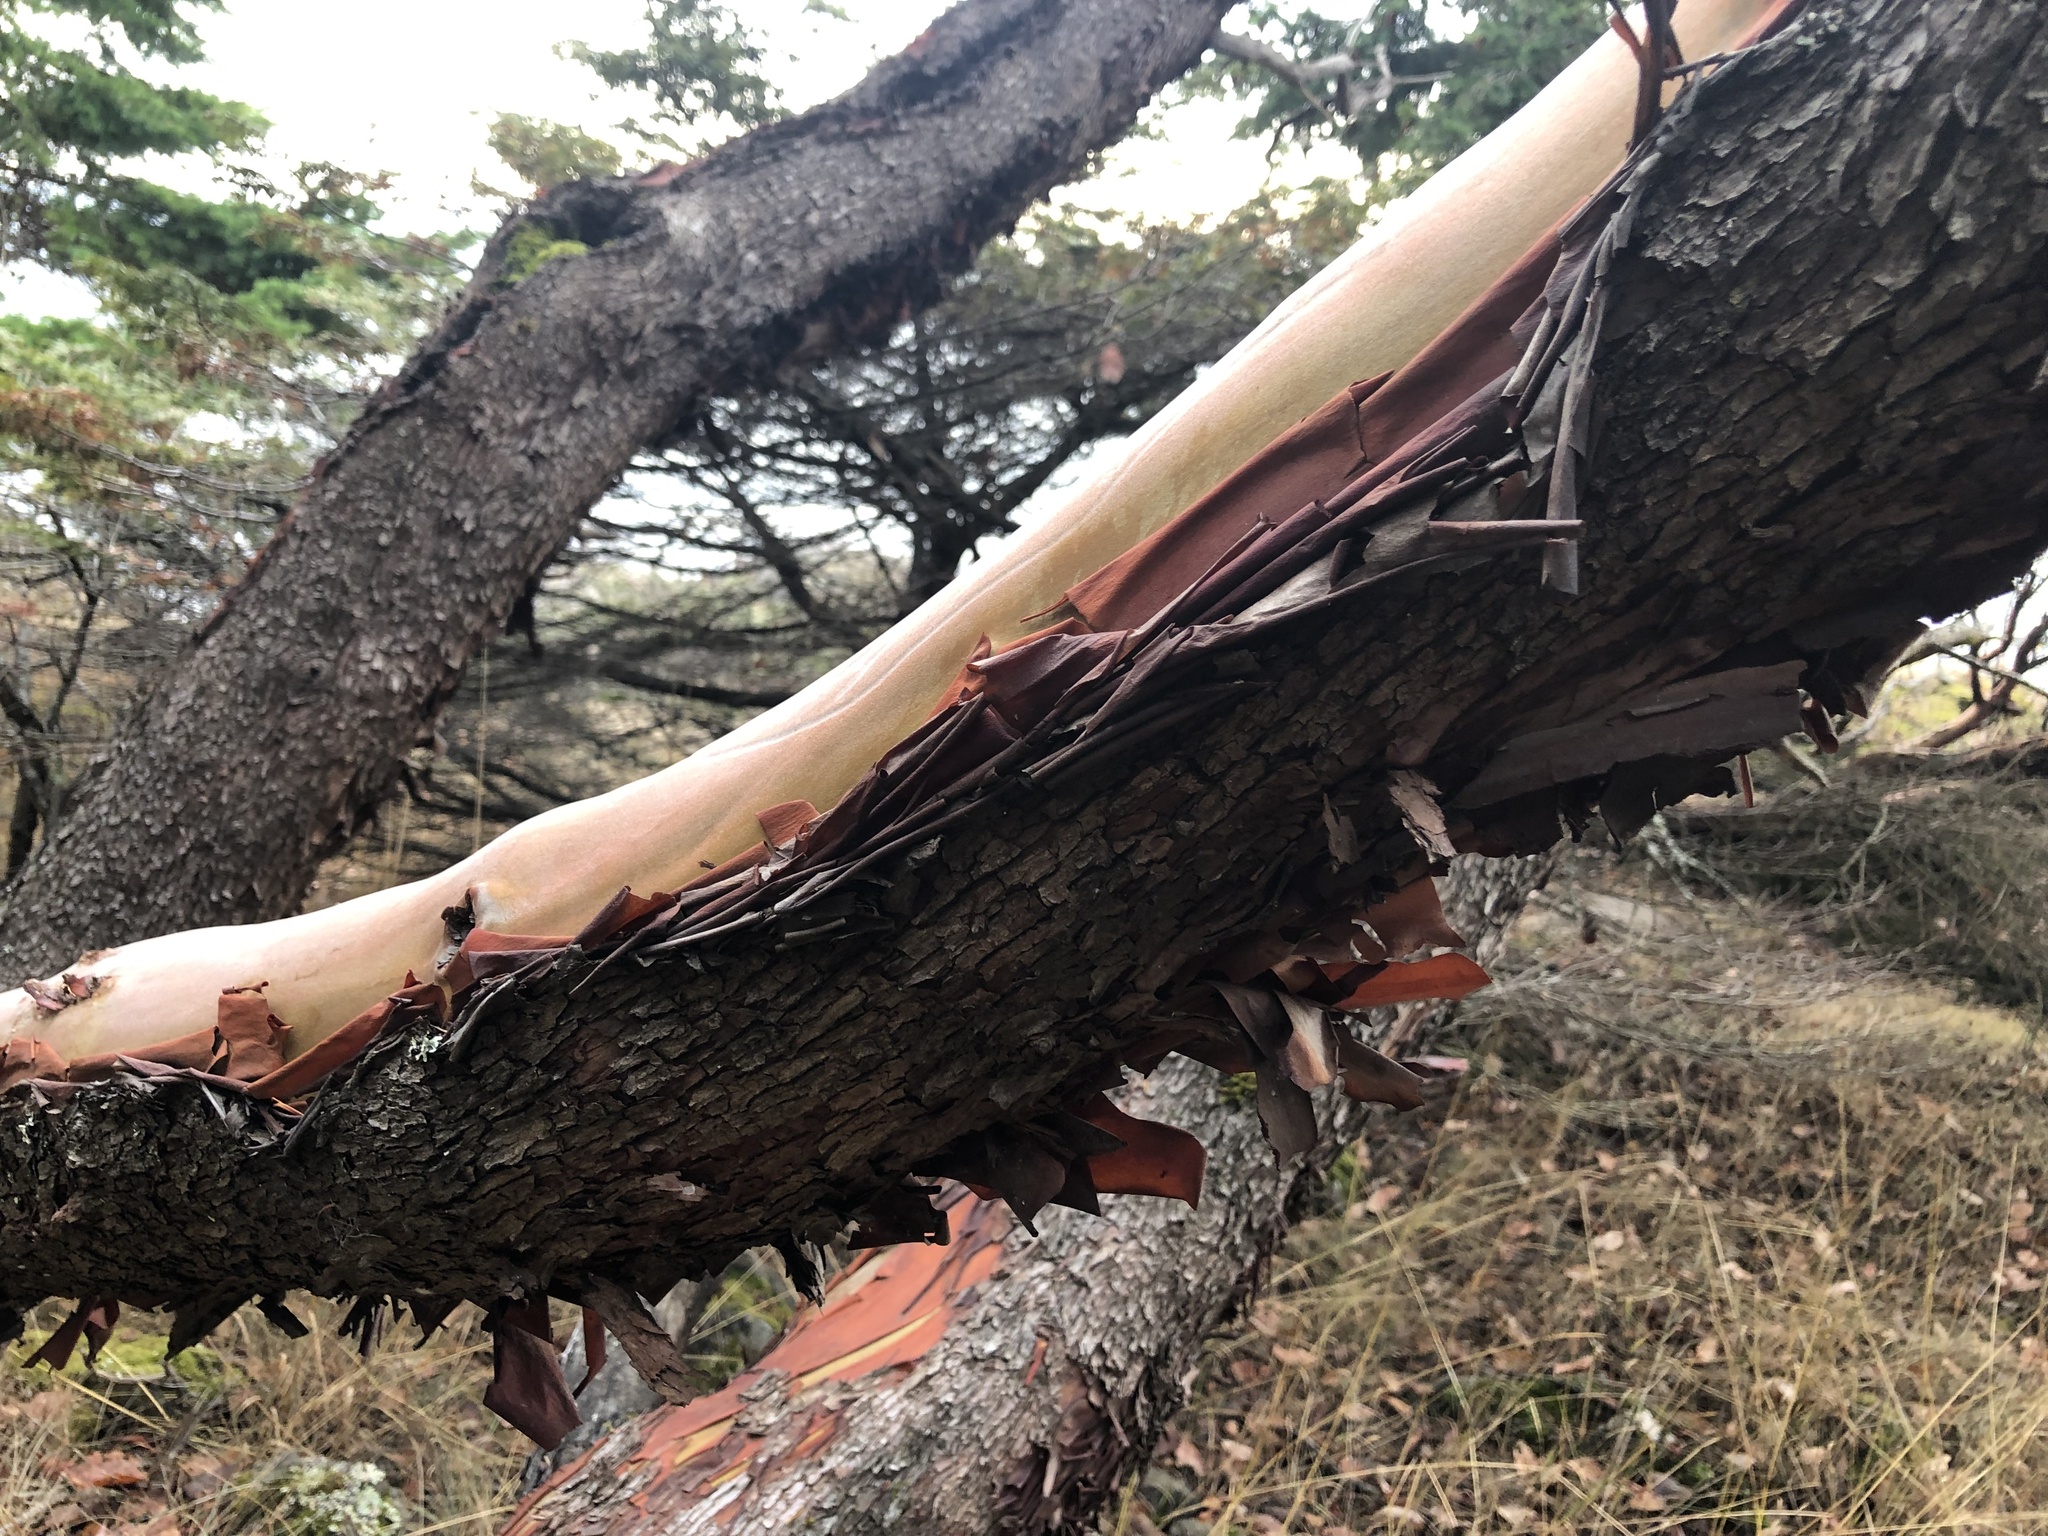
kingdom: Plantae
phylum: Tracheophyta
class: Magnoliopsida
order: Ericales
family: Ericaceae
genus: Arbutus
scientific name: Arbutus menziesii
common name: Pacific madrone
